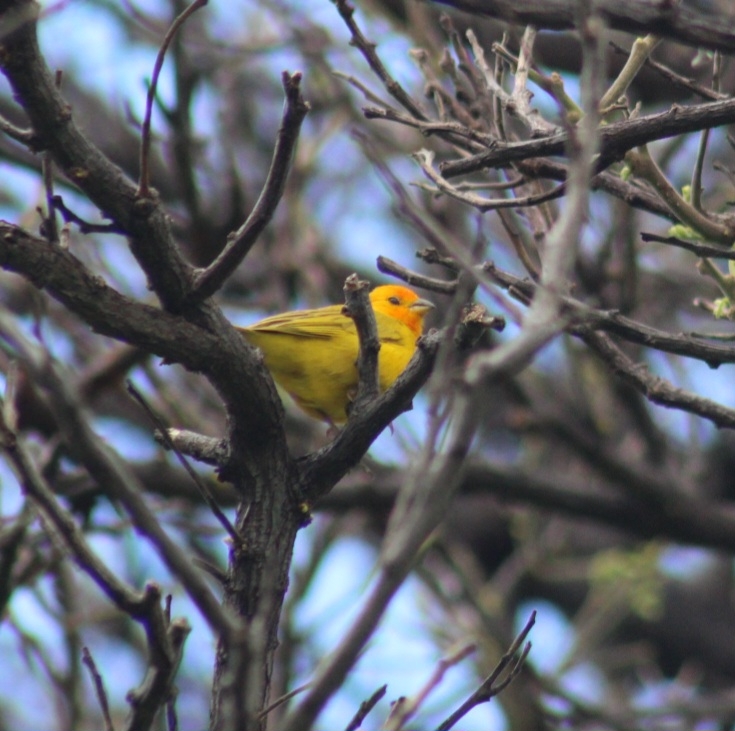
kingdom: Animalia
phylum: Chordata
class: Aves
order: Passeriformes
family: Thraupidae
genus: Sicalis
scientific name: Sicalis flaveola
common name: Saffron finch
